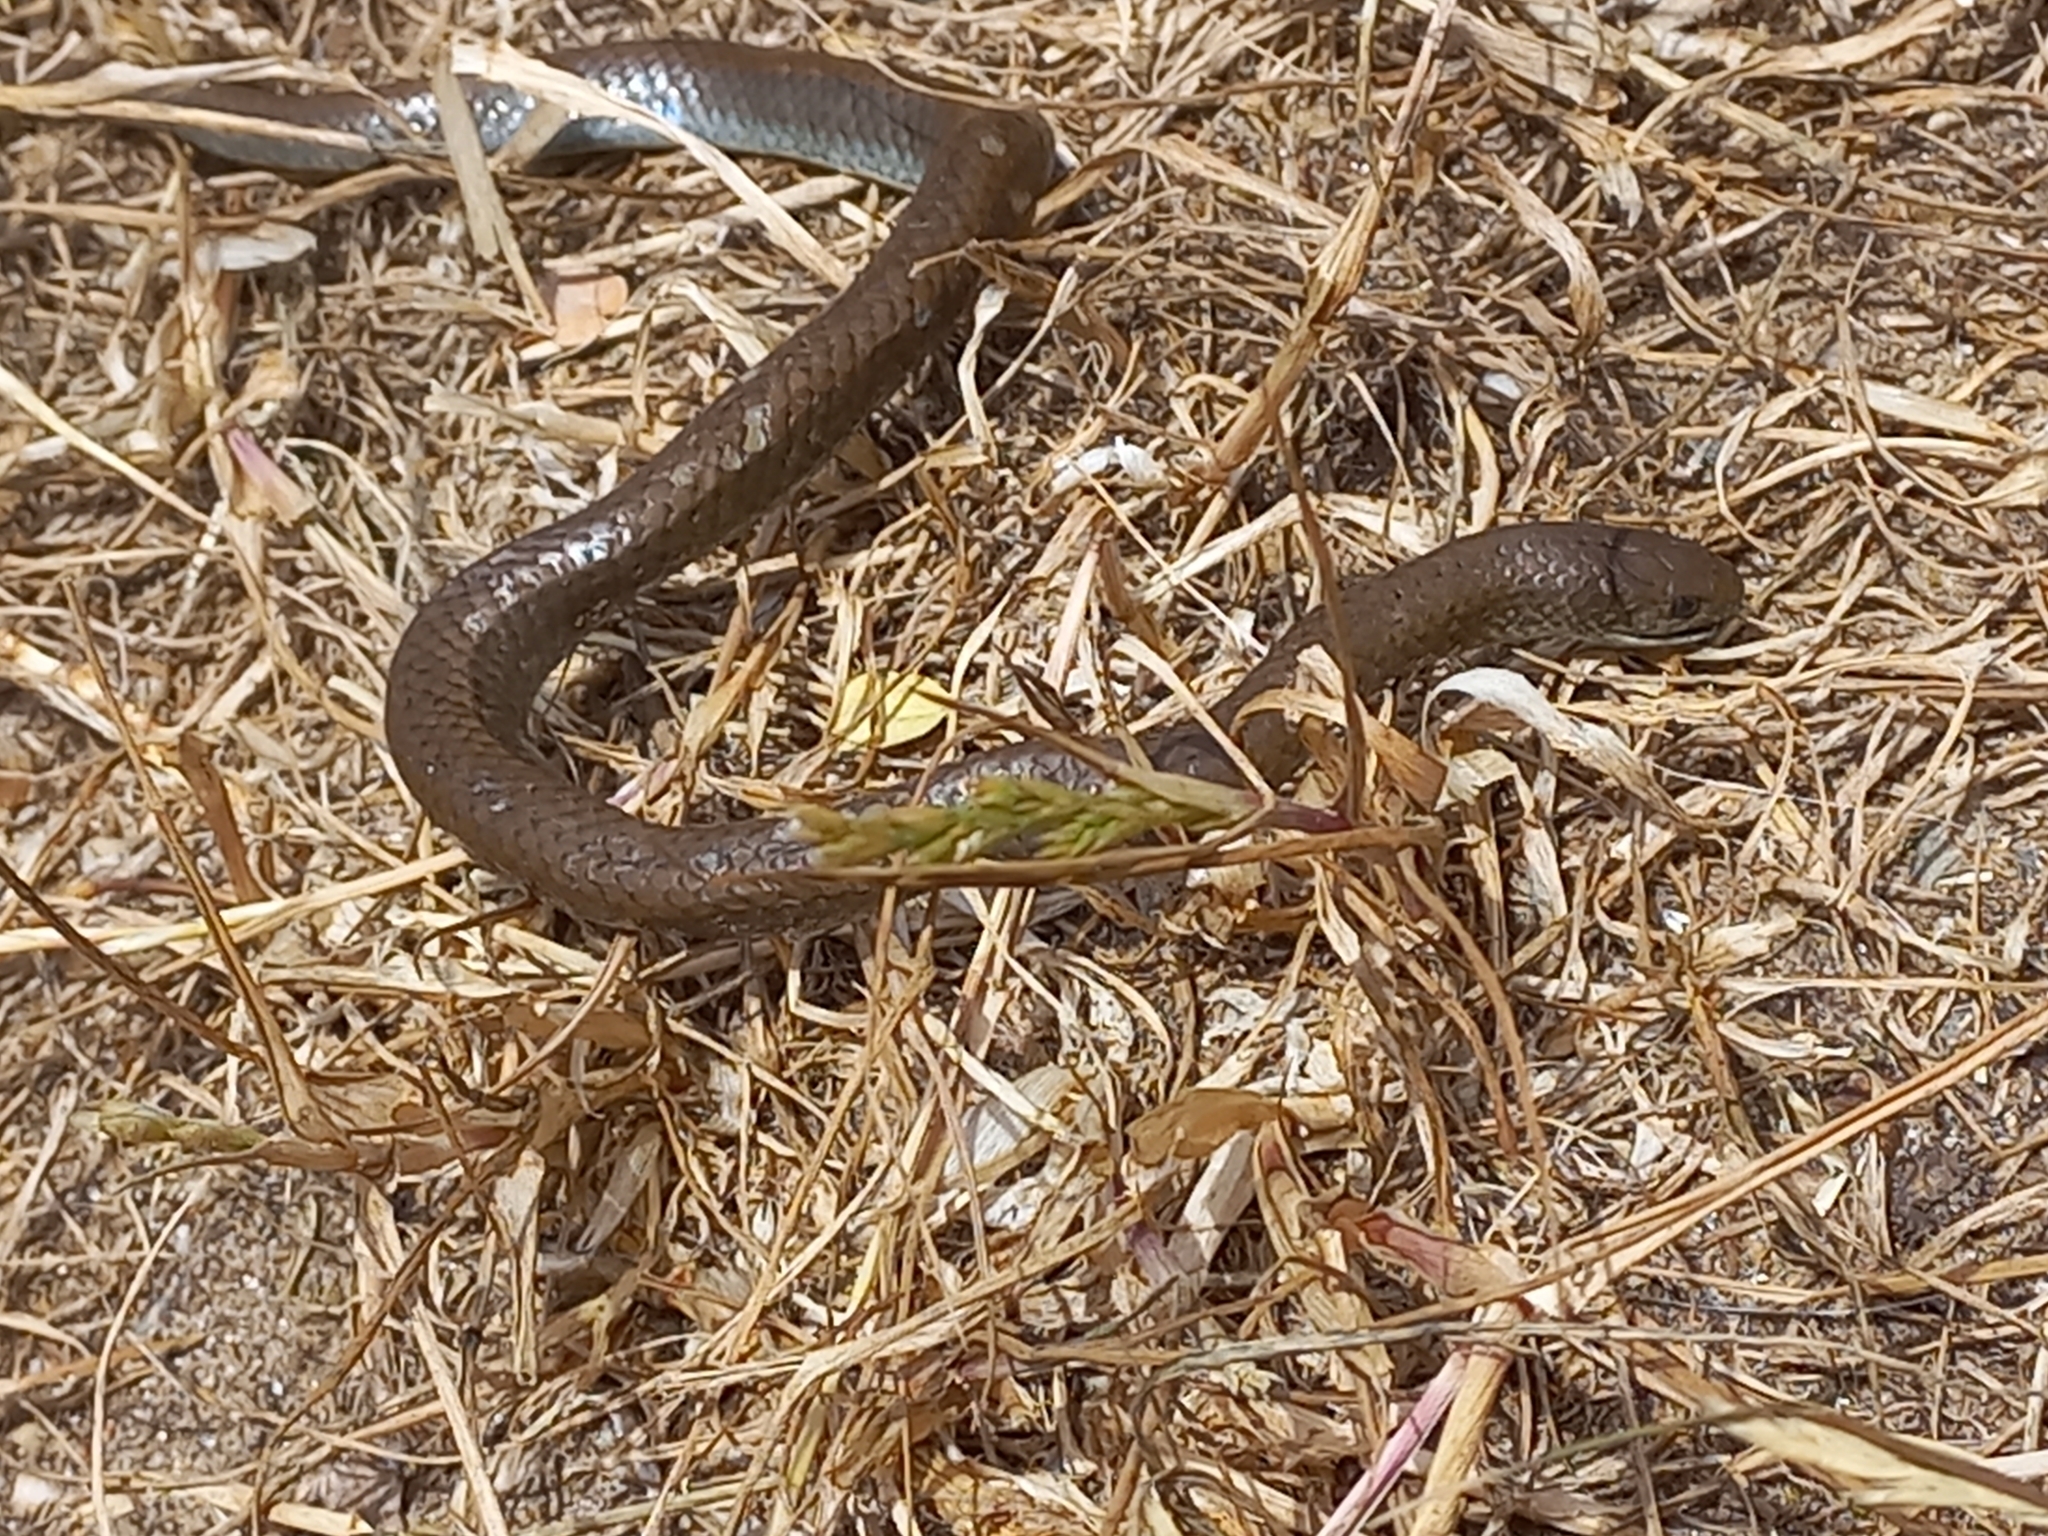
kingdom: Animalia
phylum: Chordata
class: Squamata
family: Pseudoxyrhophiidae
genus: Duberria
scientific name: Duberria lutrix
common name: Common slug eater
